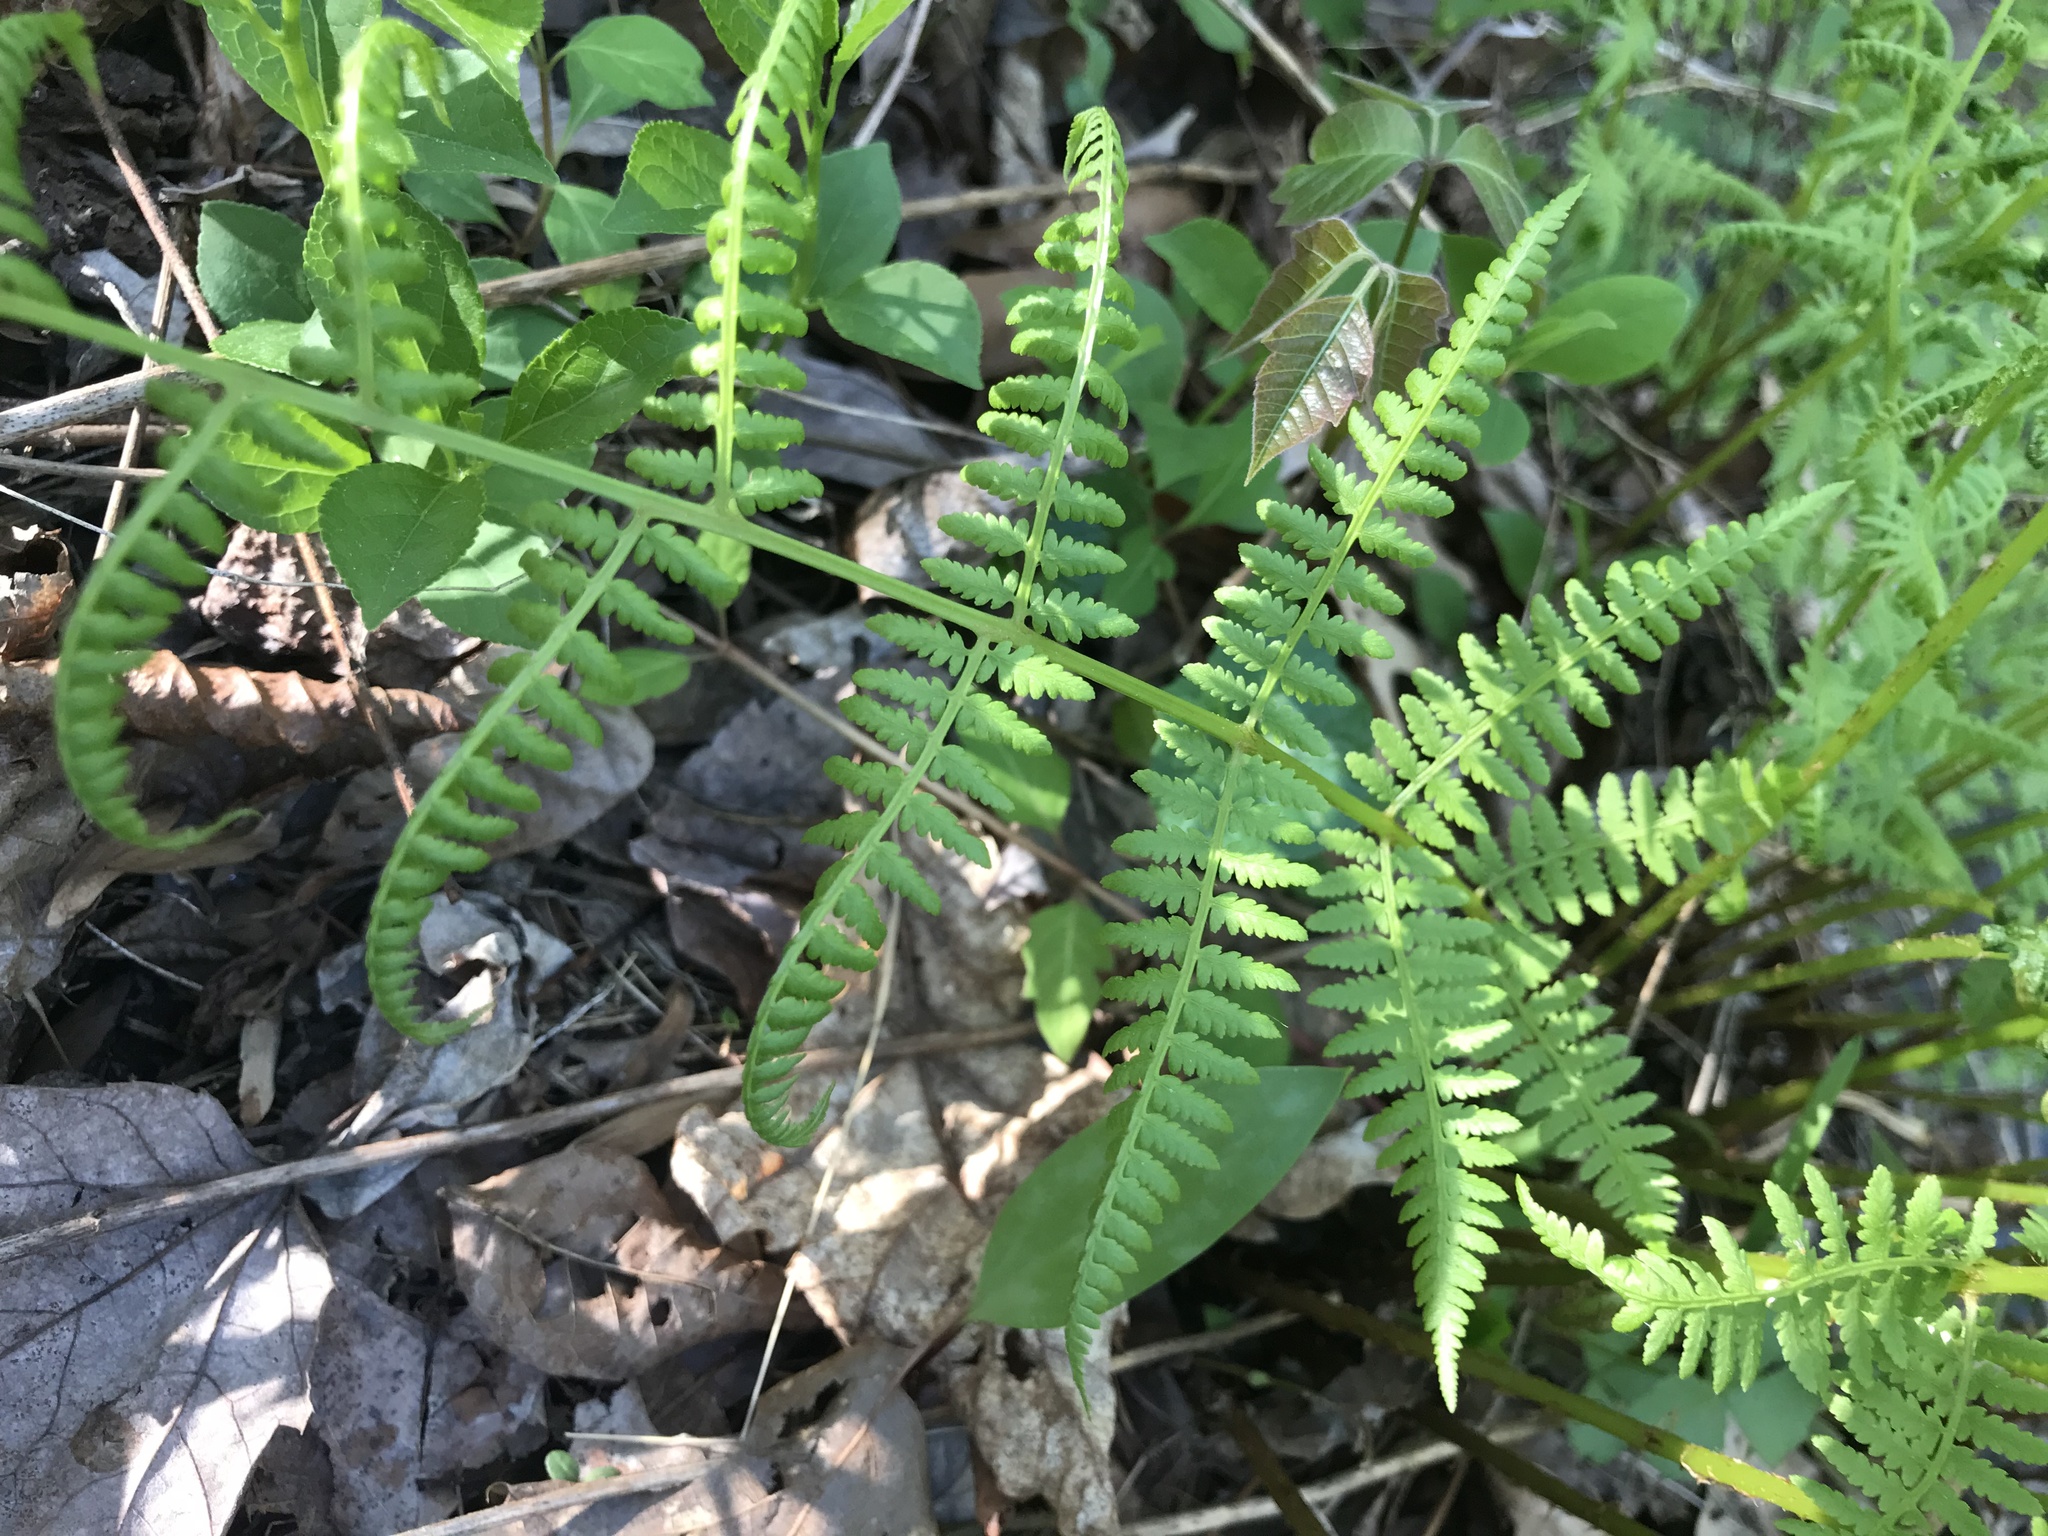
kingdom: Plantae
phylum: Tracheophyta
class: Polypodiopsida
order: Polypodiales
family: Dennstaedtiaceae
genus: Sitobolium
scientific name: Sitobolium punctilobum
